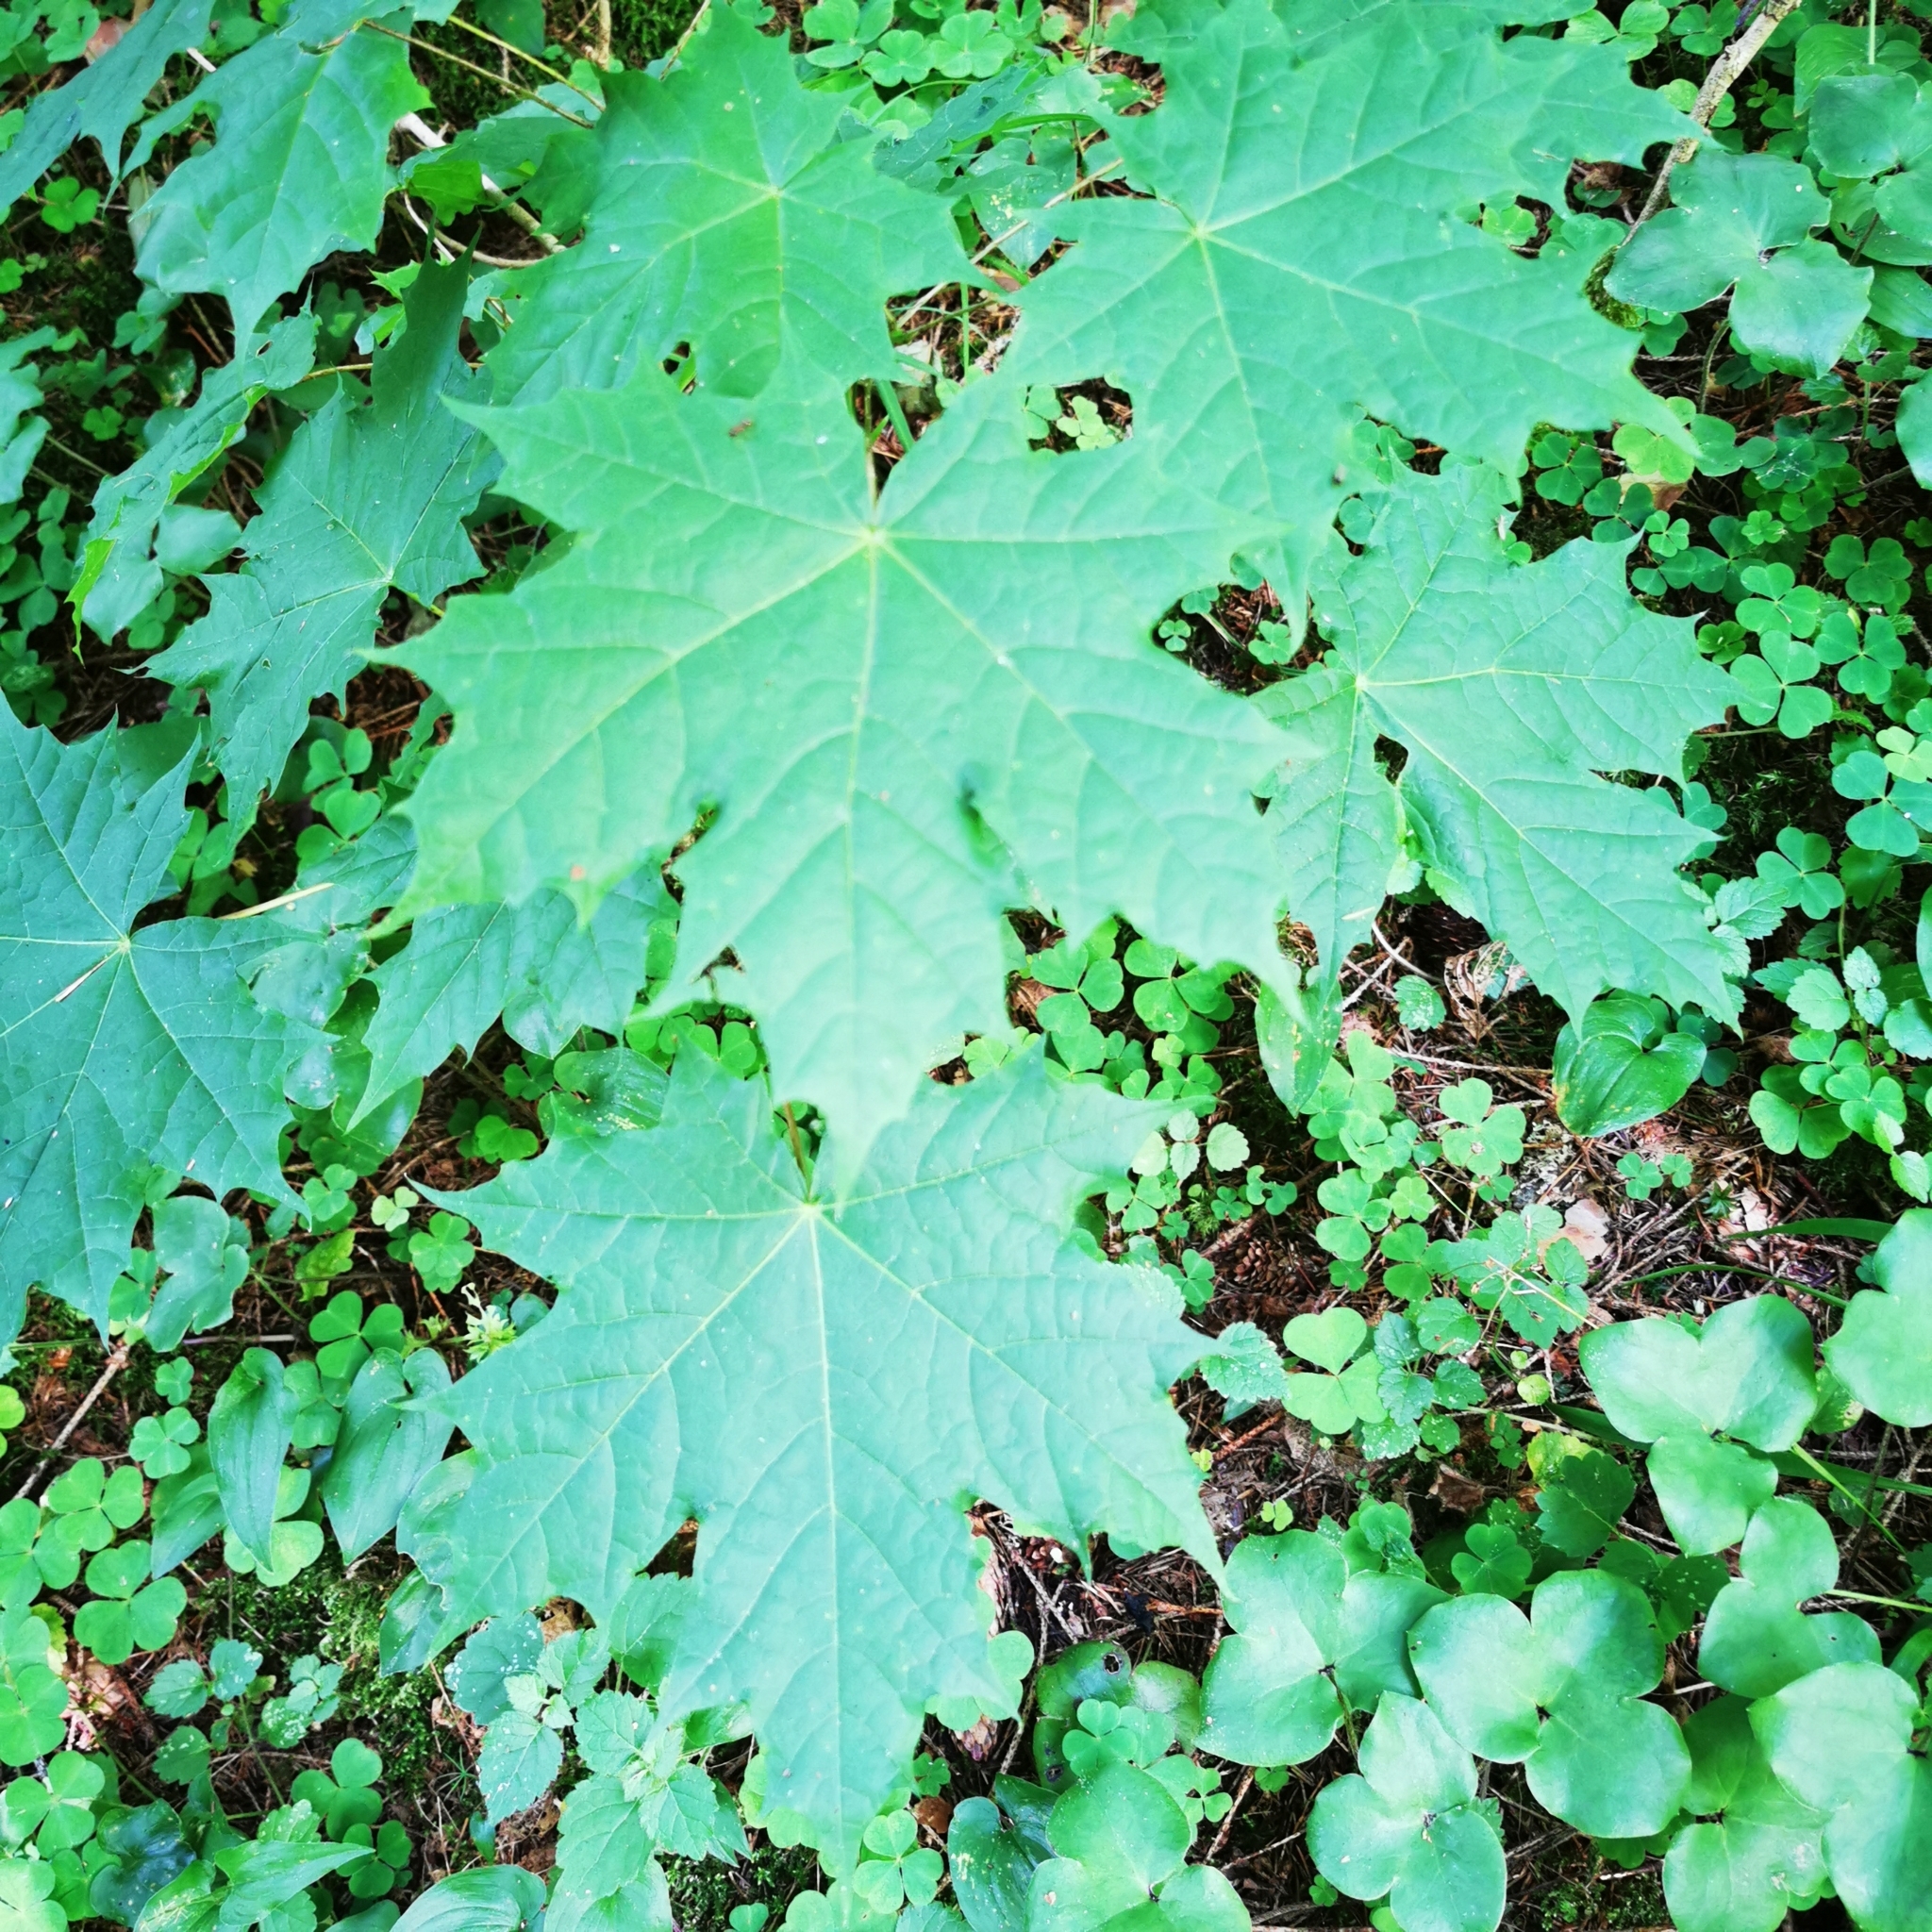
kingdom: Plantae
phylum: Tracheophyta
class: Magnoliopsida
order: Sapindales
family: Sapindaceae
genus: Acer
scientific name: Acer platanoides
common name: Norway maple
